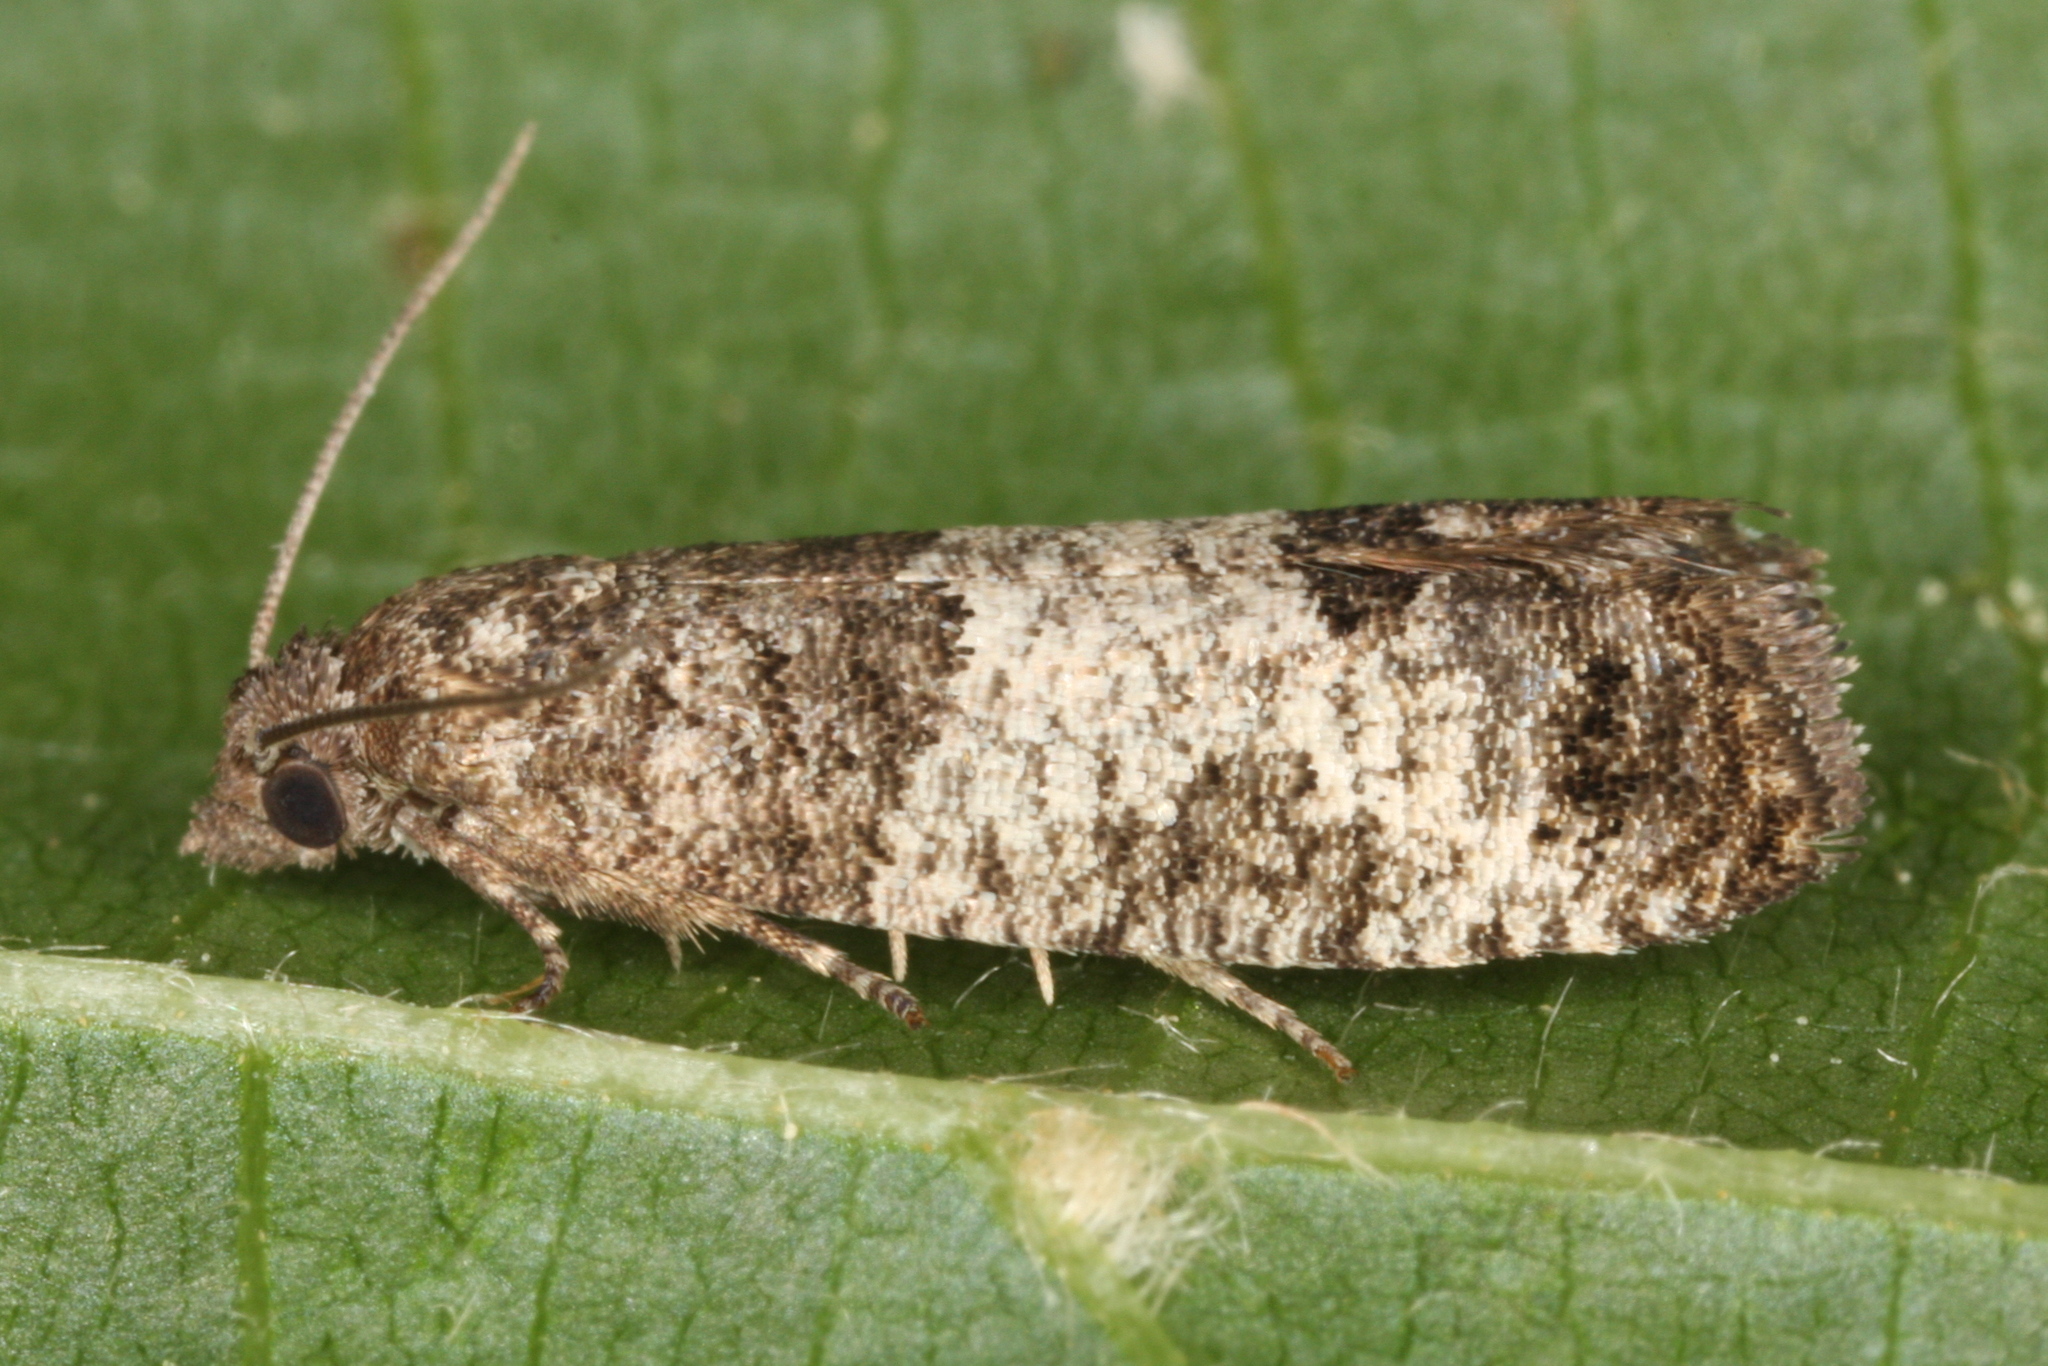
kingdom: Animalia
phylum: Arthropoda
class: Insecta
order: Lepidoptera
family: Tortricidae
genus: Spilonota
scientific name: Spilonota laricana
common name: Larch shoot tortricid moth
